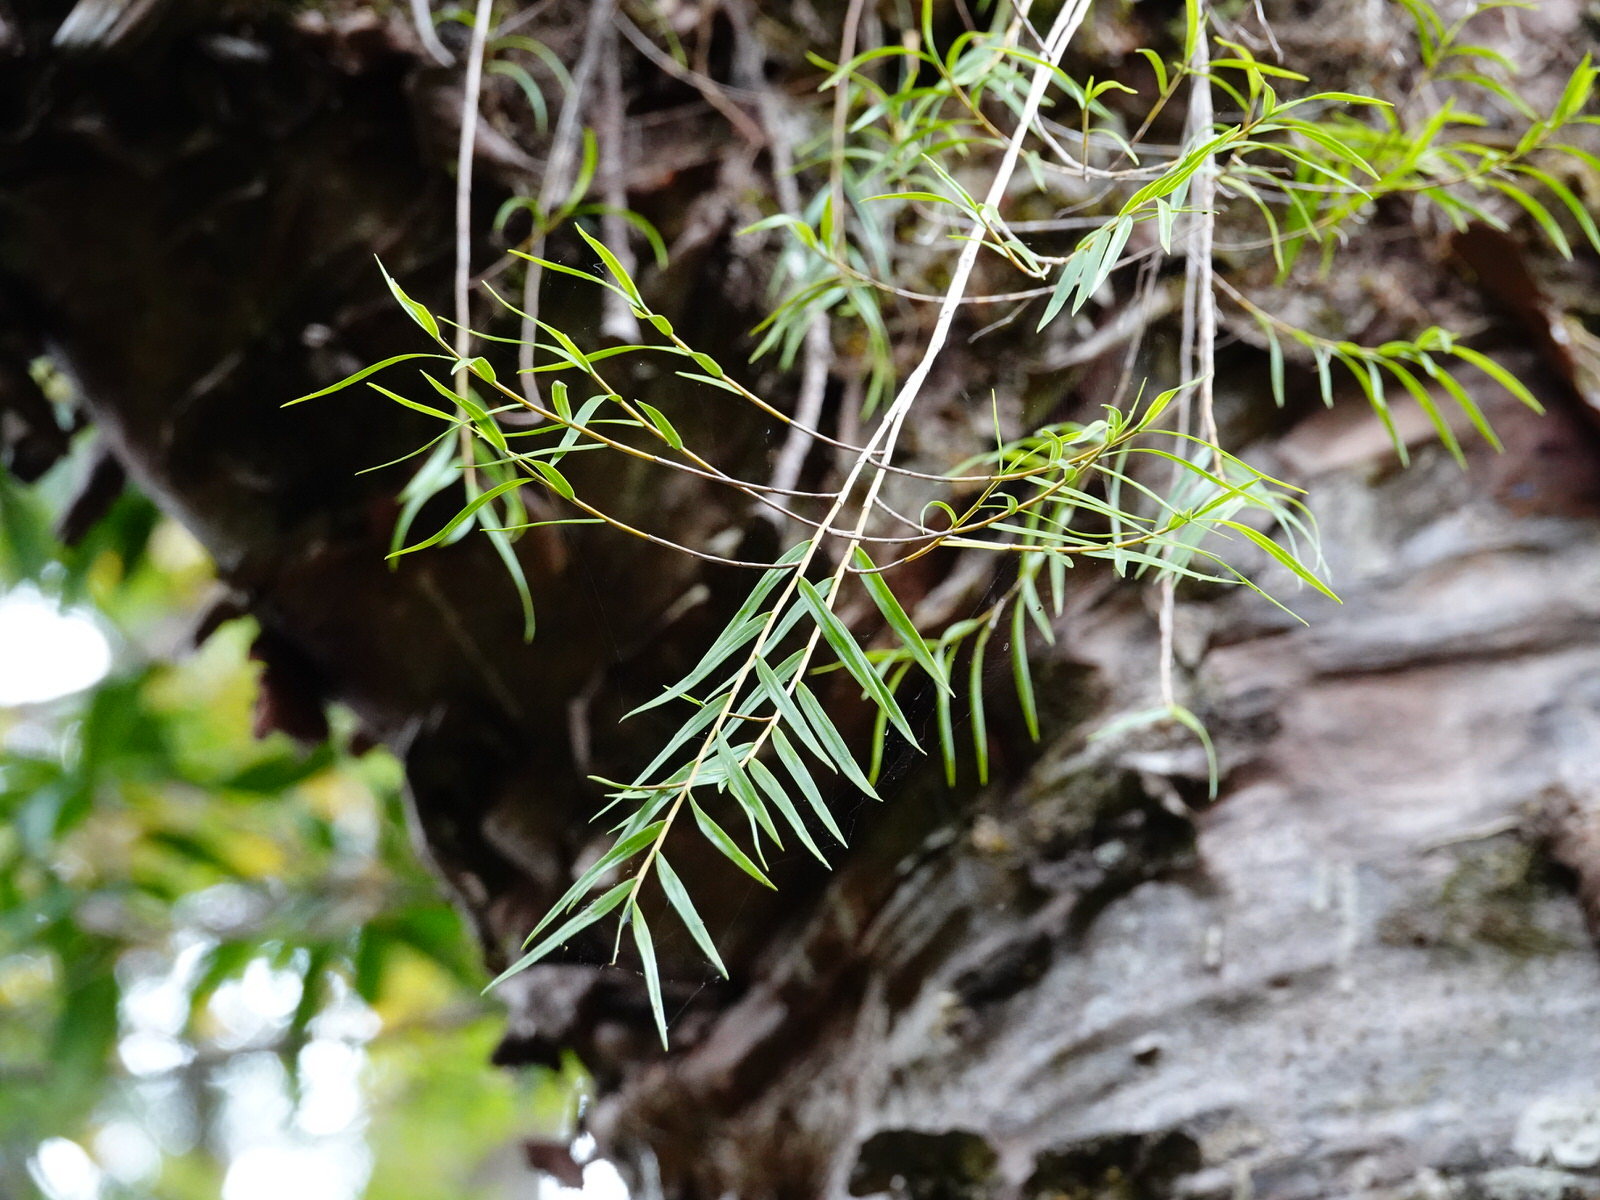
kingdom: Plantae
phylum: Tracheophyta
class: Liliopsida
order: Asparagales
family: Orchidaceae
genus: Dendrobium
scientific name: Dendrobium cunninghamii
